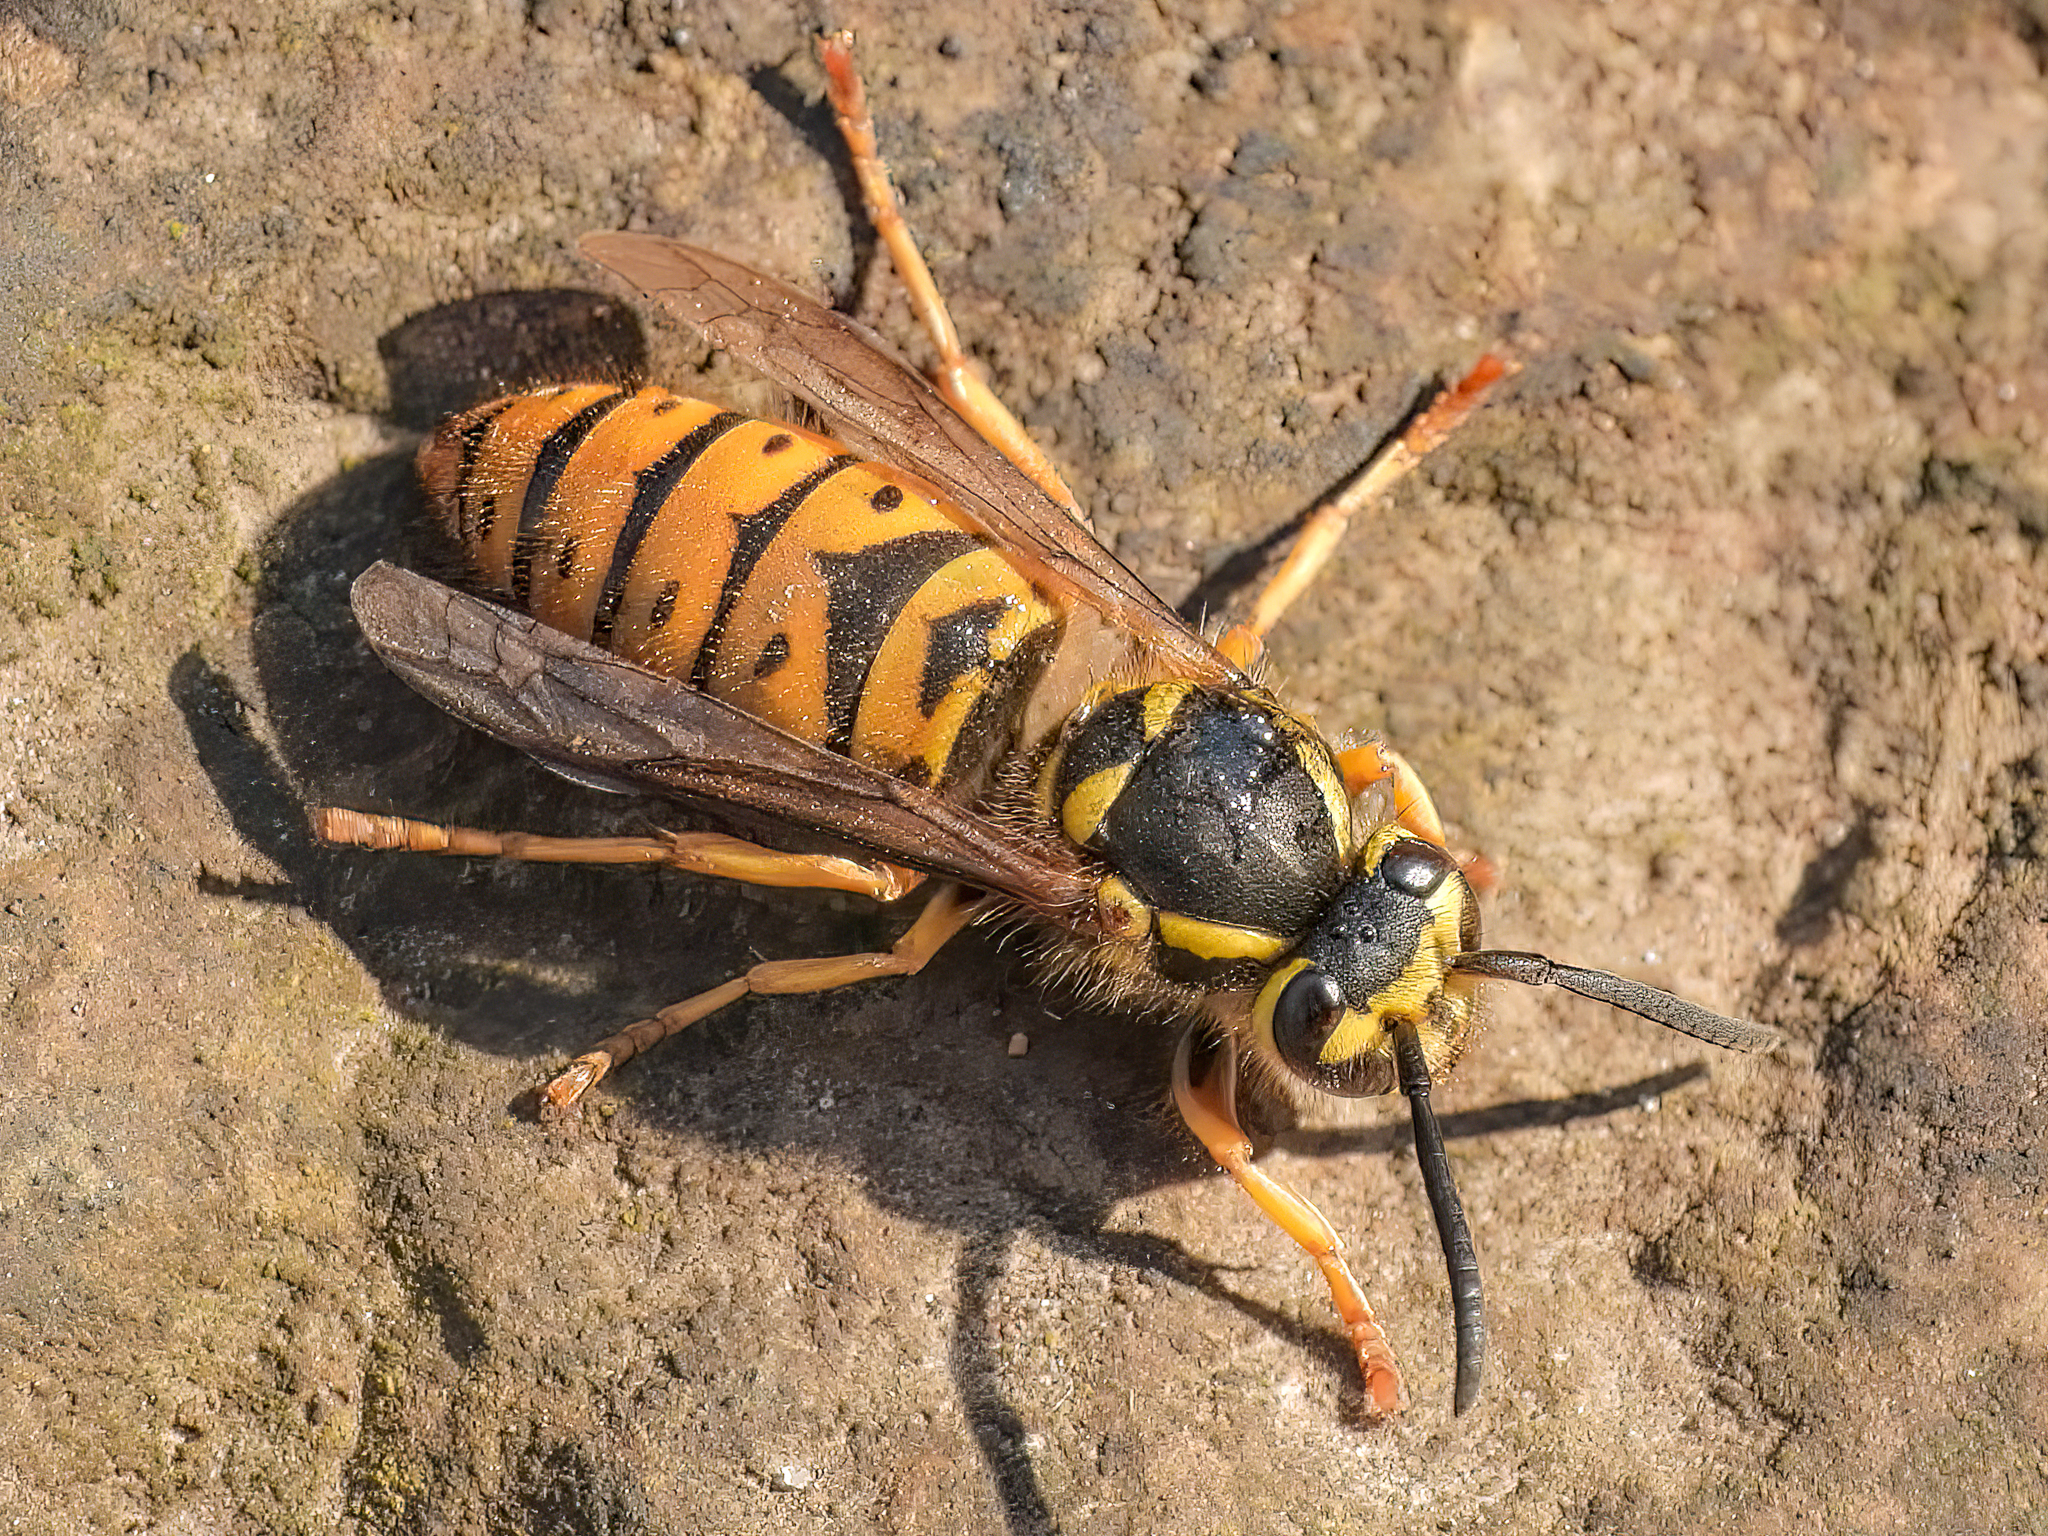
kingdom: Animalia
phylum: Arthropoda
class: Insecta
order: Hymenoptera
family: Vespidae
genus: Vespula
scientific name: Vespula maculifrons
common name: Eastern yellowjacket
